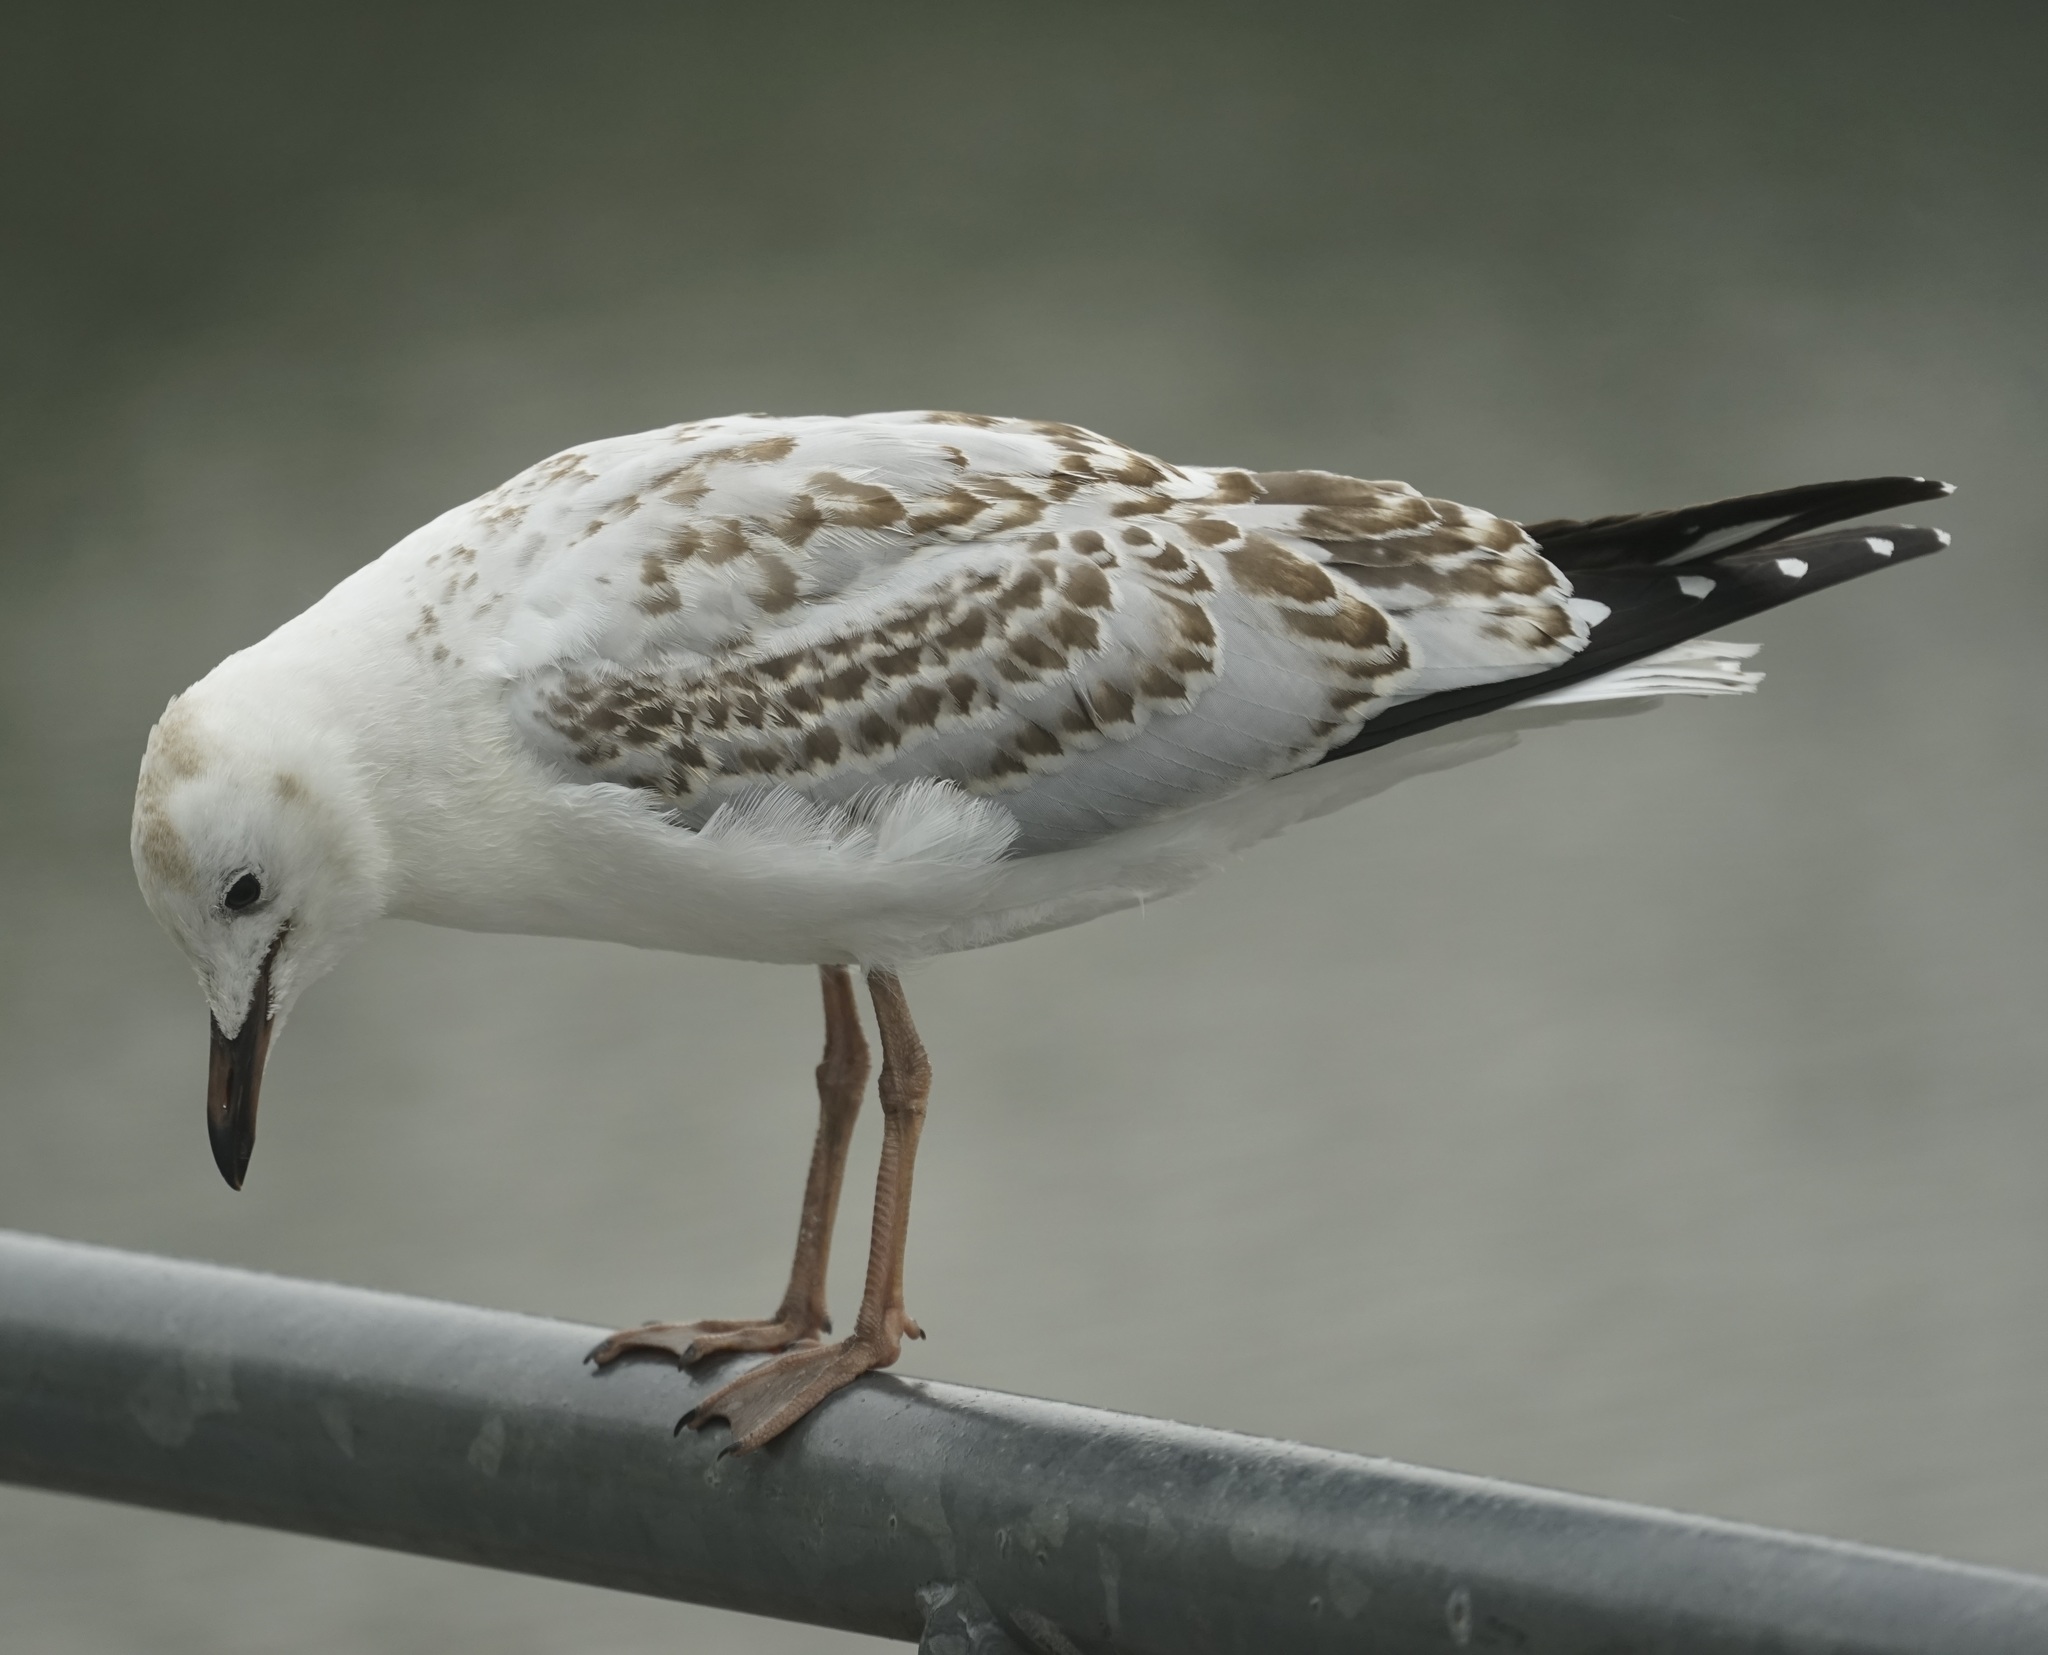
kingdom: Animalia
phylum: Chordata
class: Aves
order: Charadriiformes
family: Laridae
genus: Chroicocephalus
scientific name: Chroicocephalus novaehollandiae
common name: Silver gull
